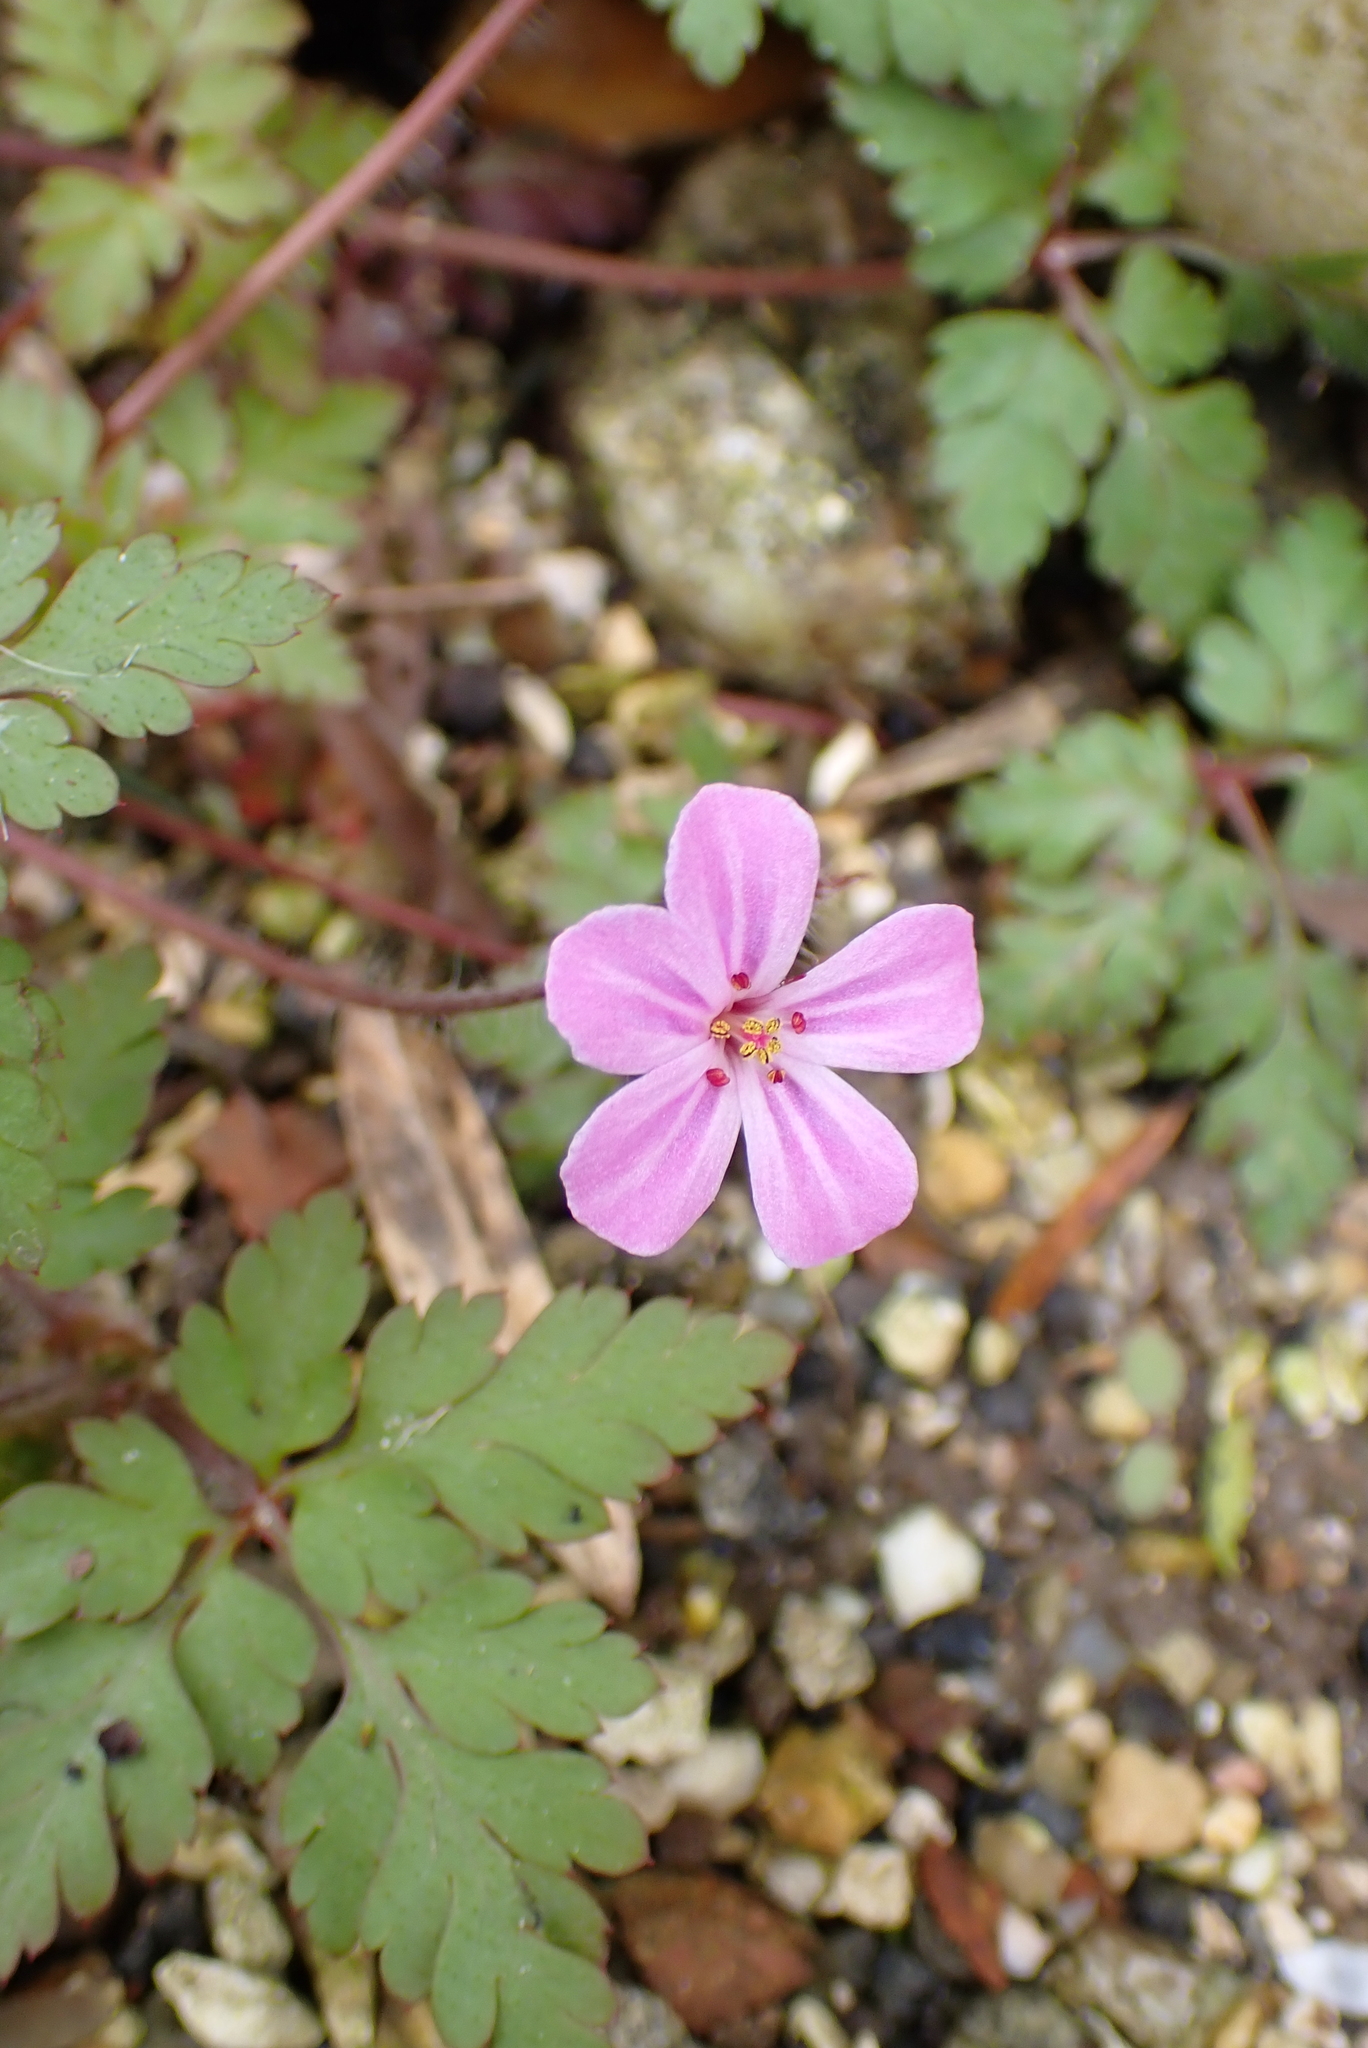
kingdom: Plantae
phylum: Tracheophyta
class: Magnoliopsida
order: Geraniales
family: Geraniaceae
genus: Geranium
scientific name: Geranium robertianum
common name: Herb-robert
